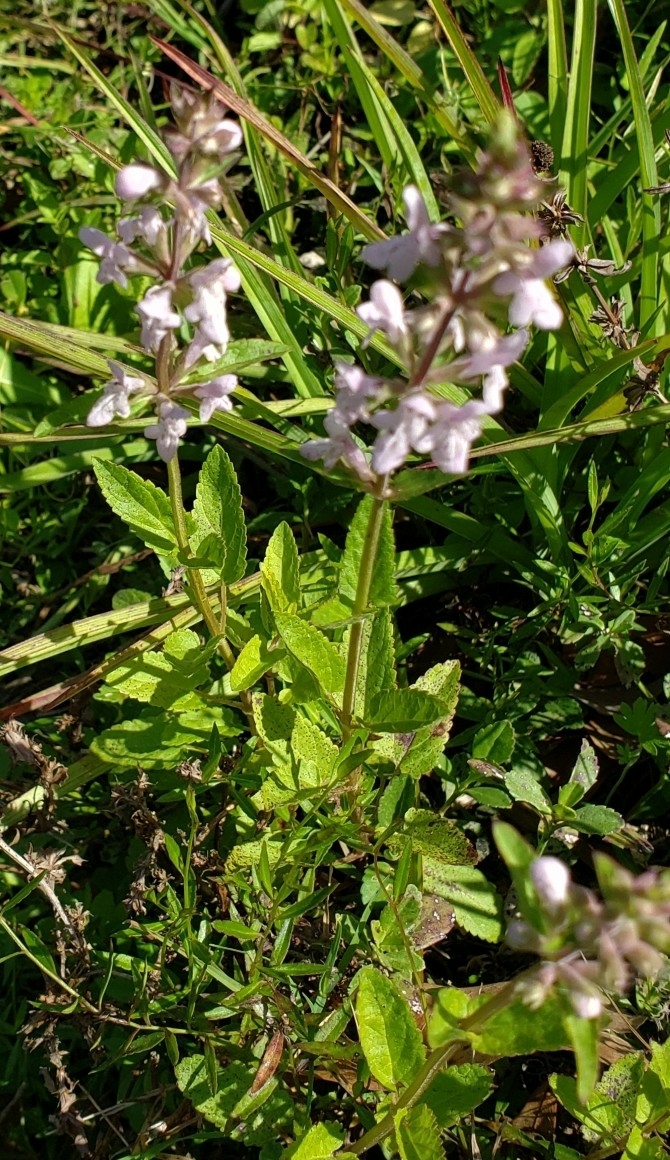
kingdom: Plantae
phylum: Tracheophyta
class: Magnoliopsida
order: Lamiales
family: Lamiaceae
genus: Stachys
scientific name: Stachys floridana
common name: Florida betony
